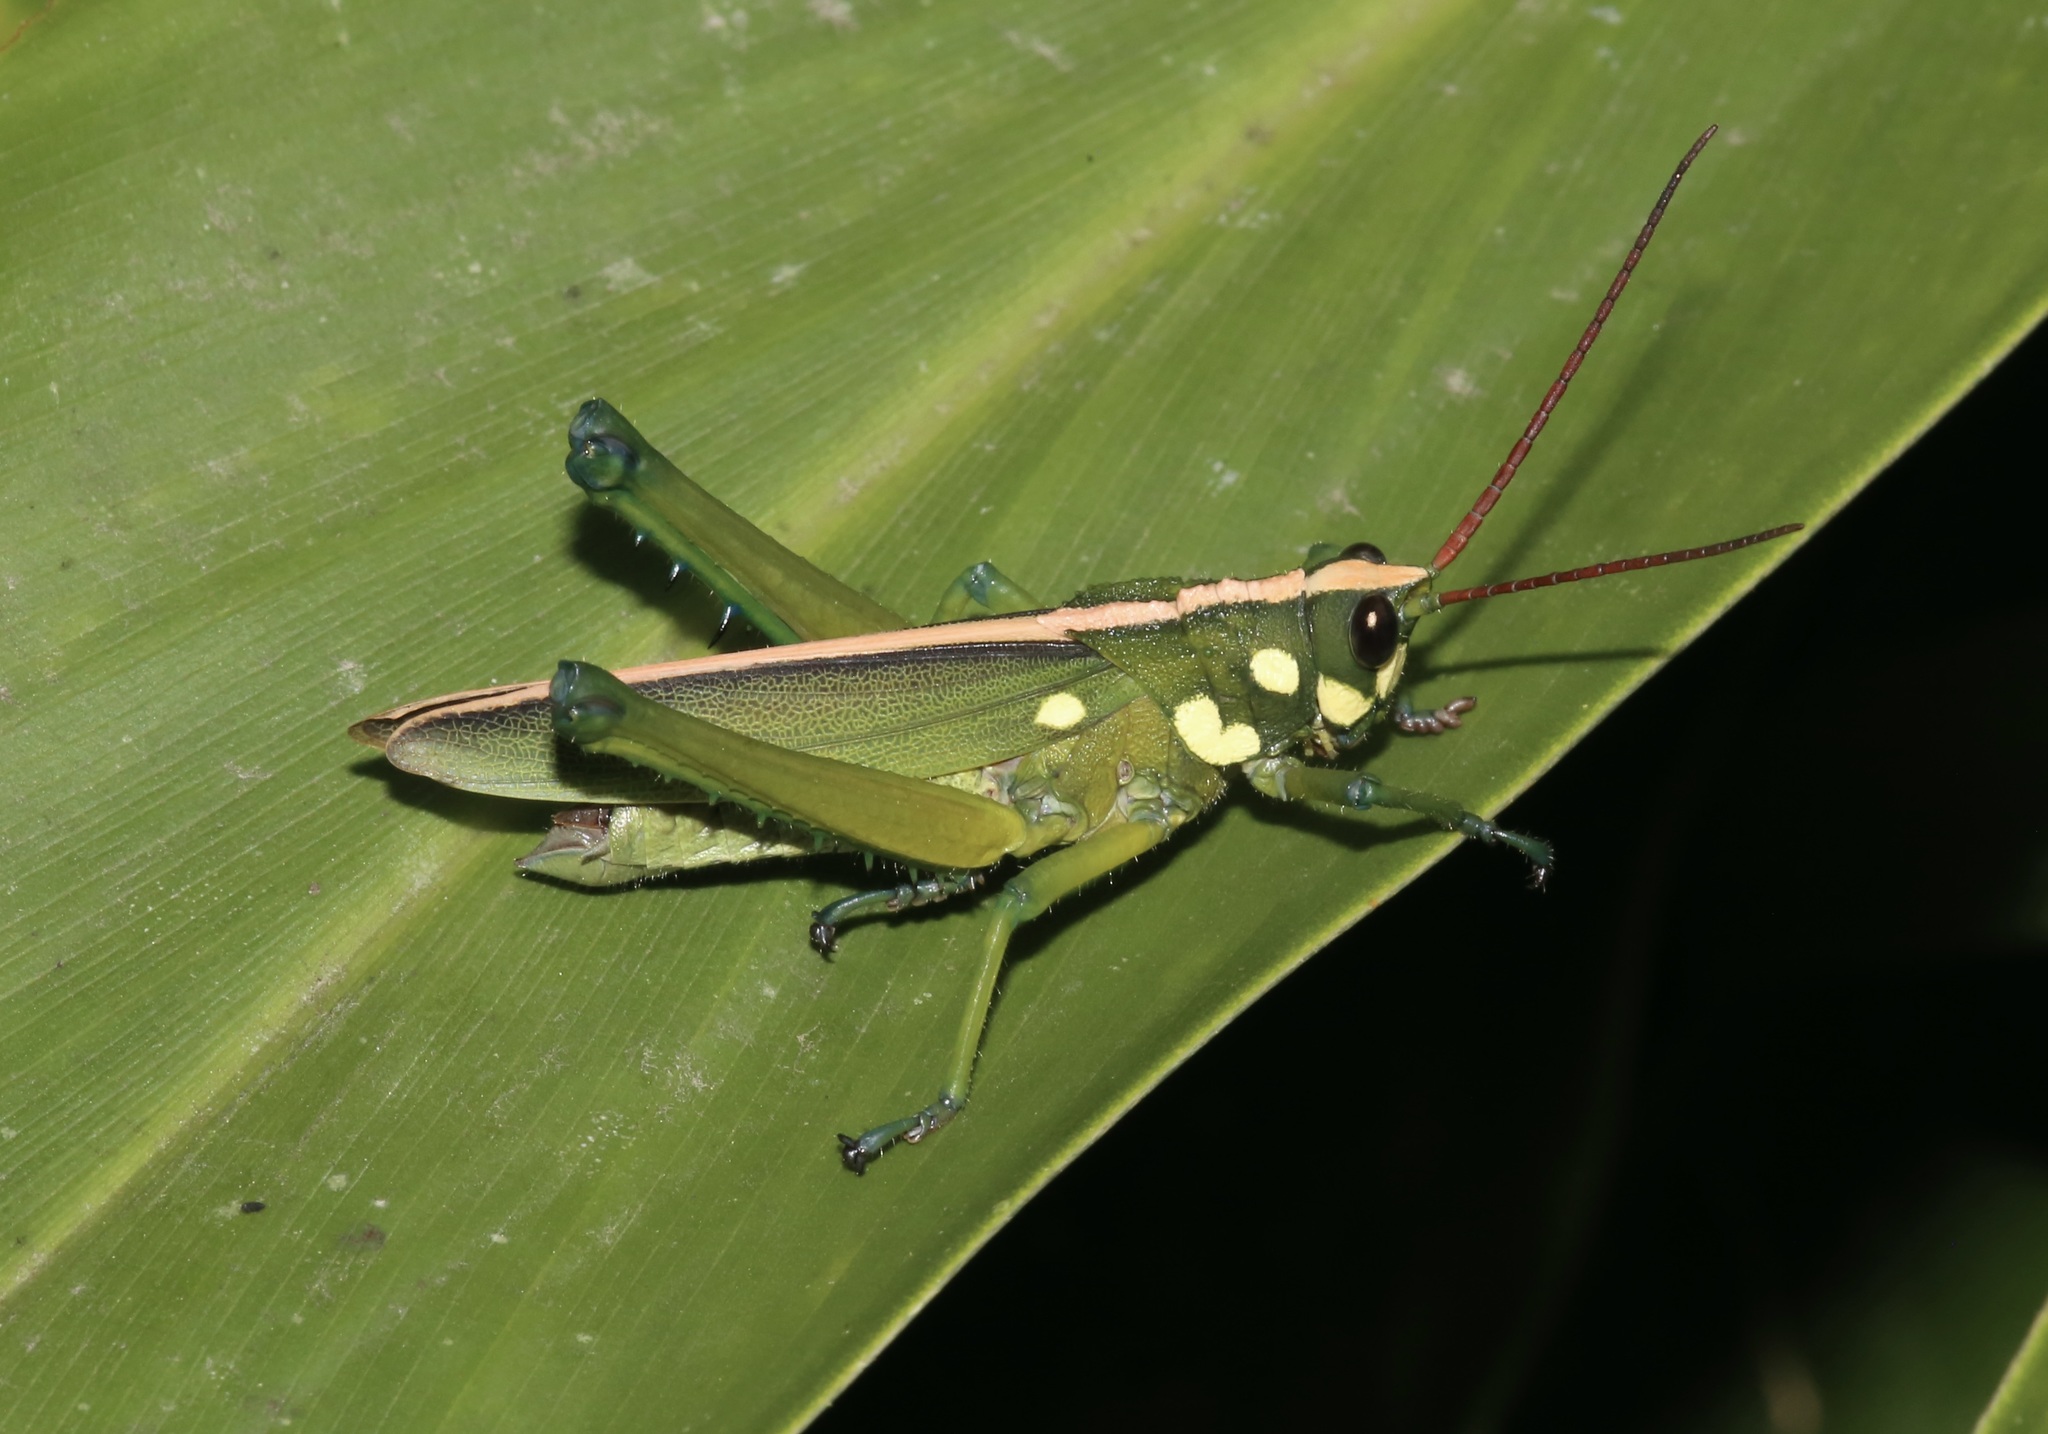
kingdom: Animalia
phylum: Arthropoda
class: Insecta
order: Orthoptera
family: Romaleidae
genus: Agriacris
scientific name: Agriacris magnifica
